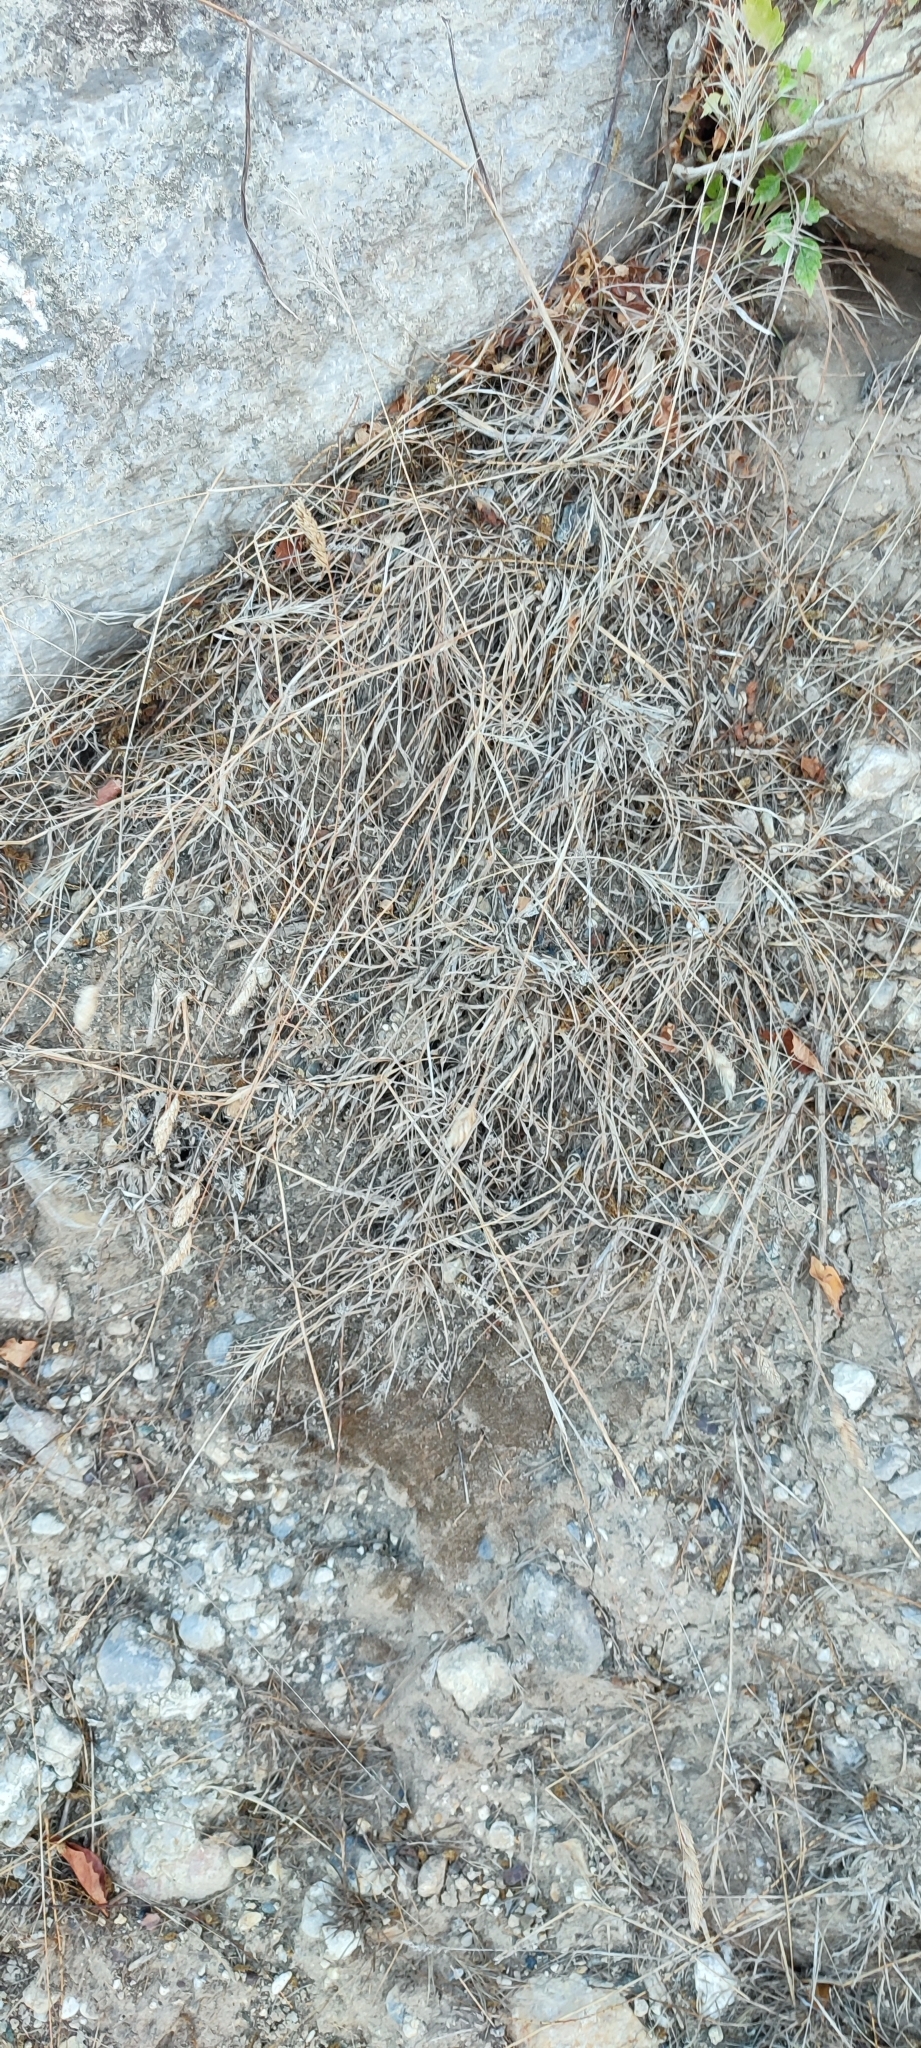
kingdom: Plantae
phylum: Tracheophyta
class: Liliopsida
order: Poales
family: Poaceae
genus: Dactylis
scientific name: Dactylis glomerata
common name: Orchardgrass
